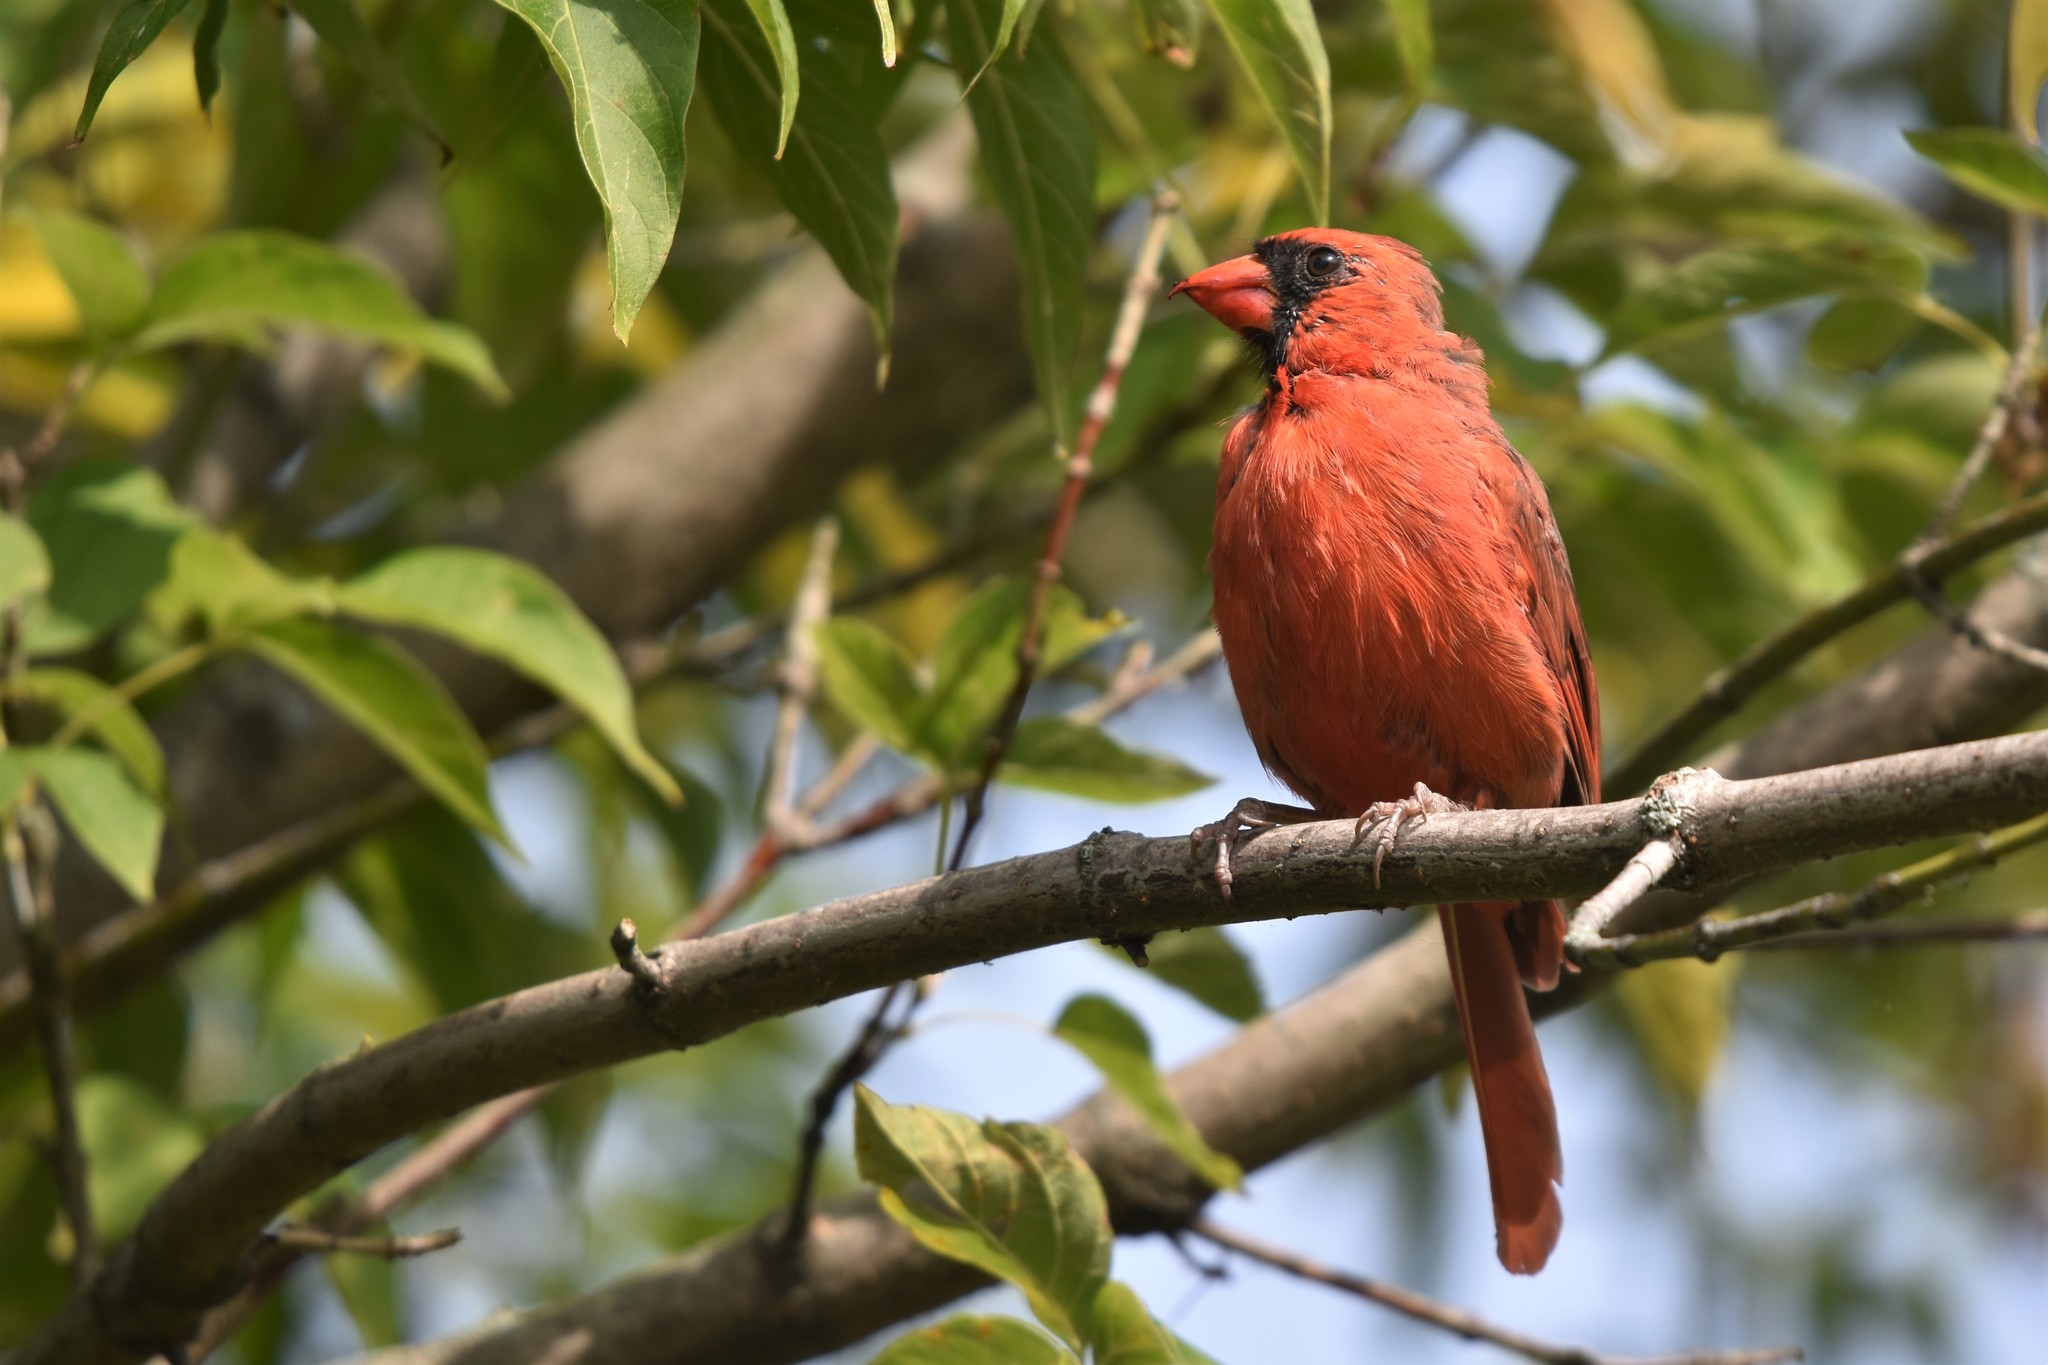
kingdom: Animalia
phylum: Chordata
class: Aves
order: Passeriformes
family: Cardinalidae
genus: Cardinalis
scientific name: Cardinalis cardinalis
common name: Northern cardinal
